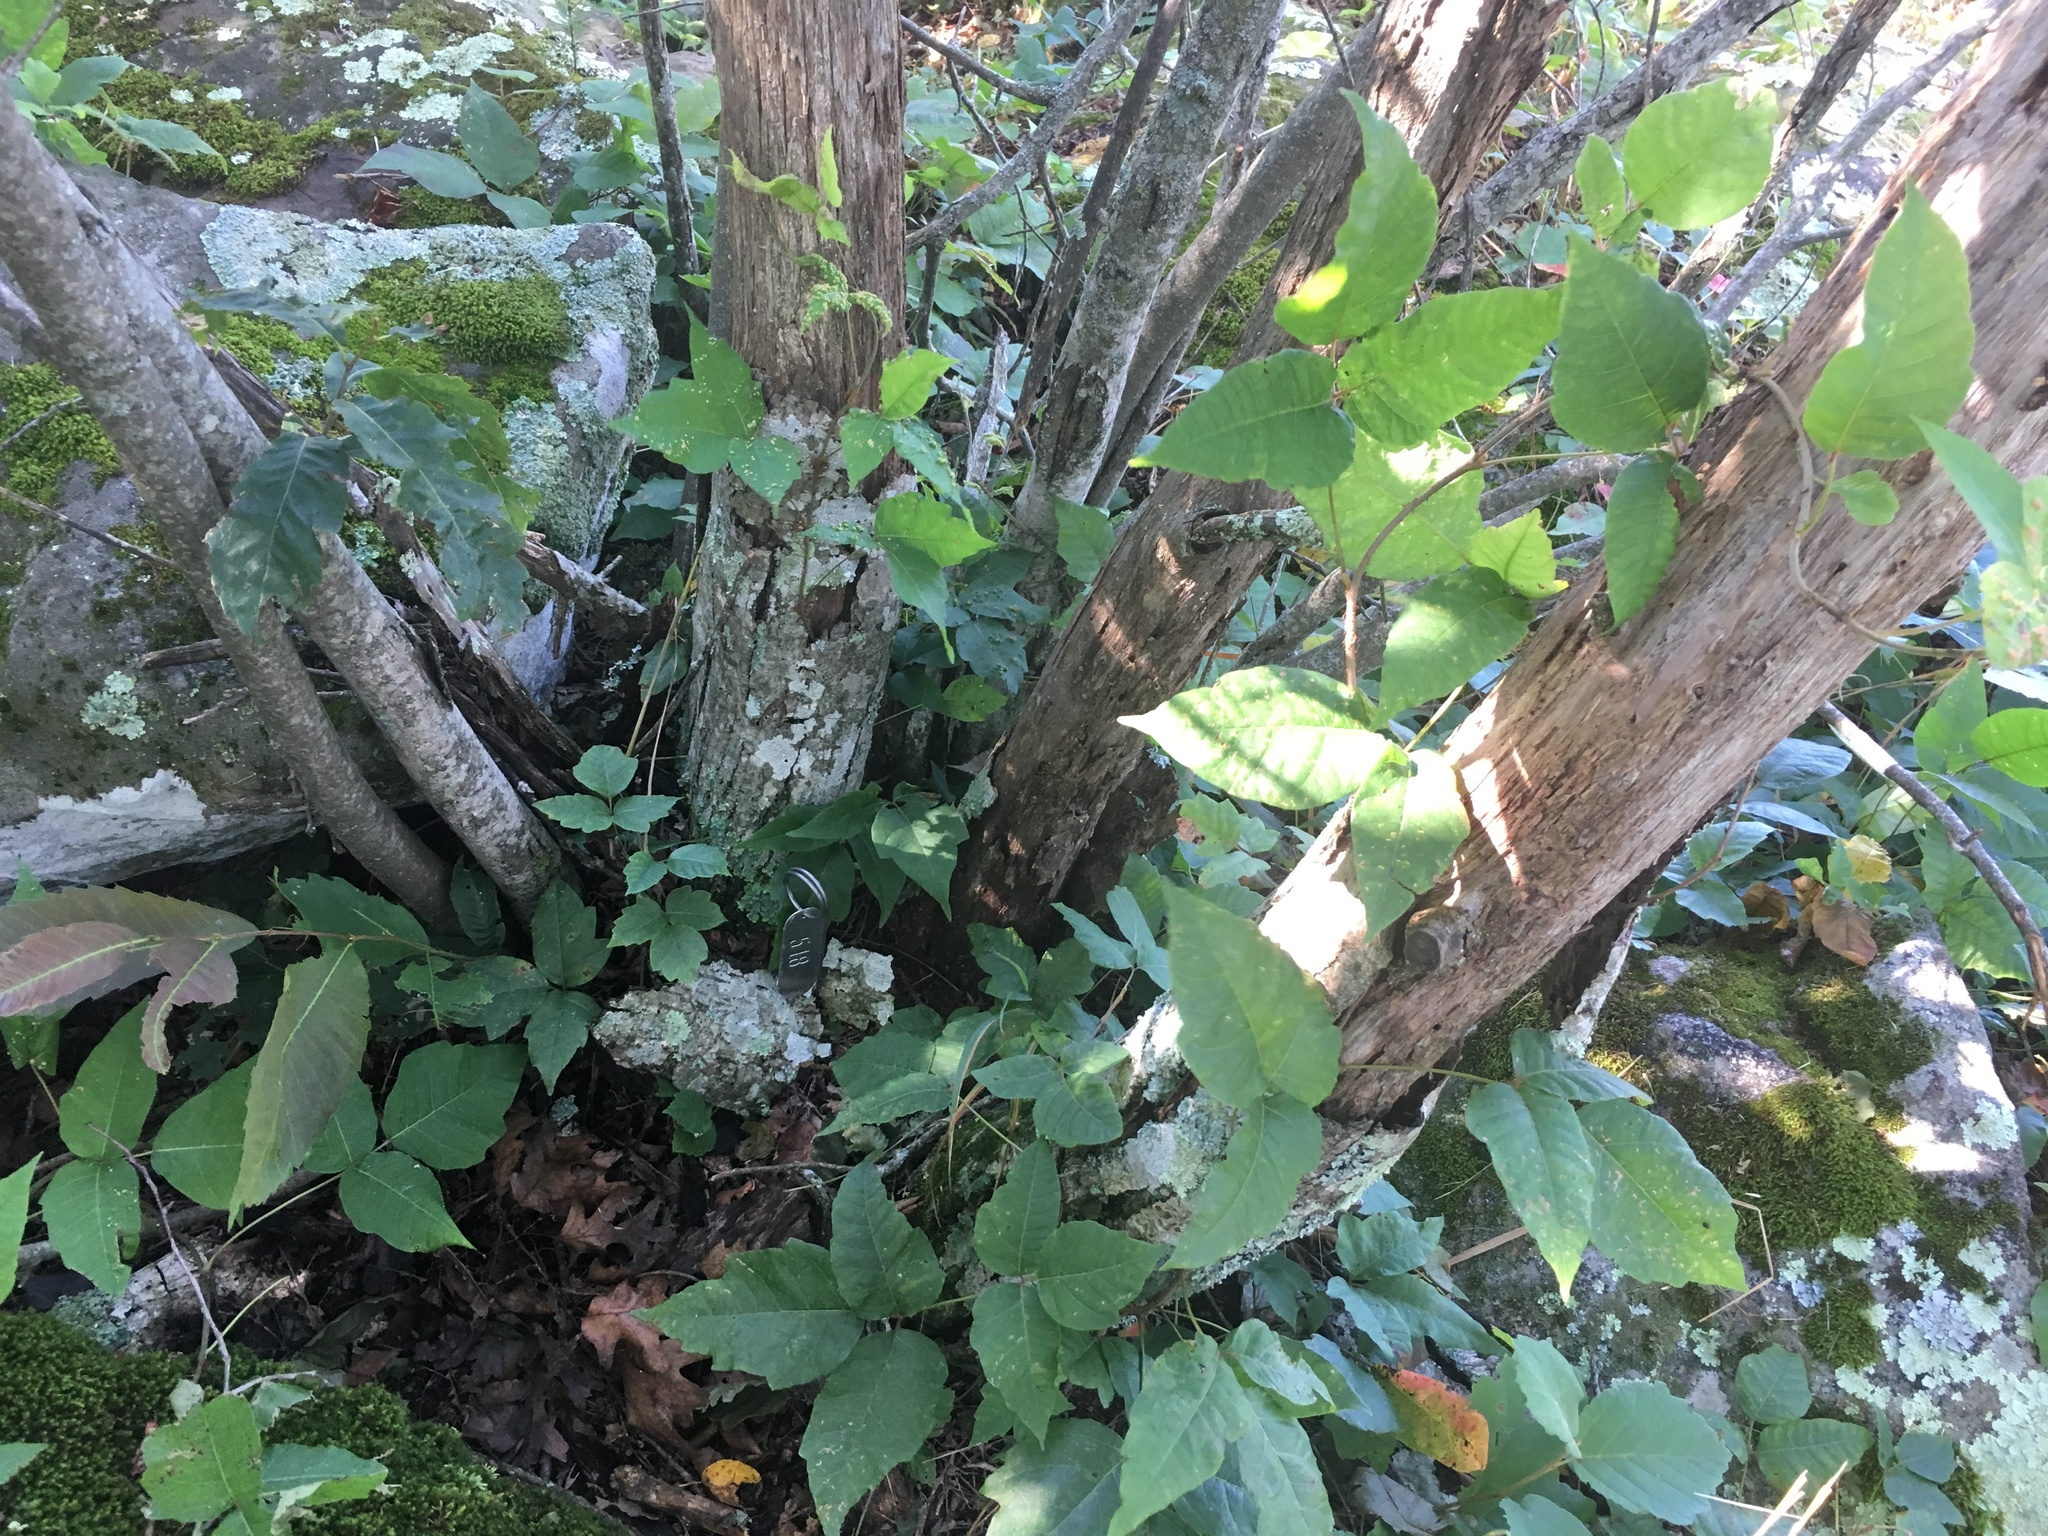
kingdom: Plantae
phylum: Tracheophyta
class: Magnoliopsida
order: Fagales
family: Fagaceae
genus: Castanea
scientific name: Castanea ozarkensis
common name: Ozark chinkapin
